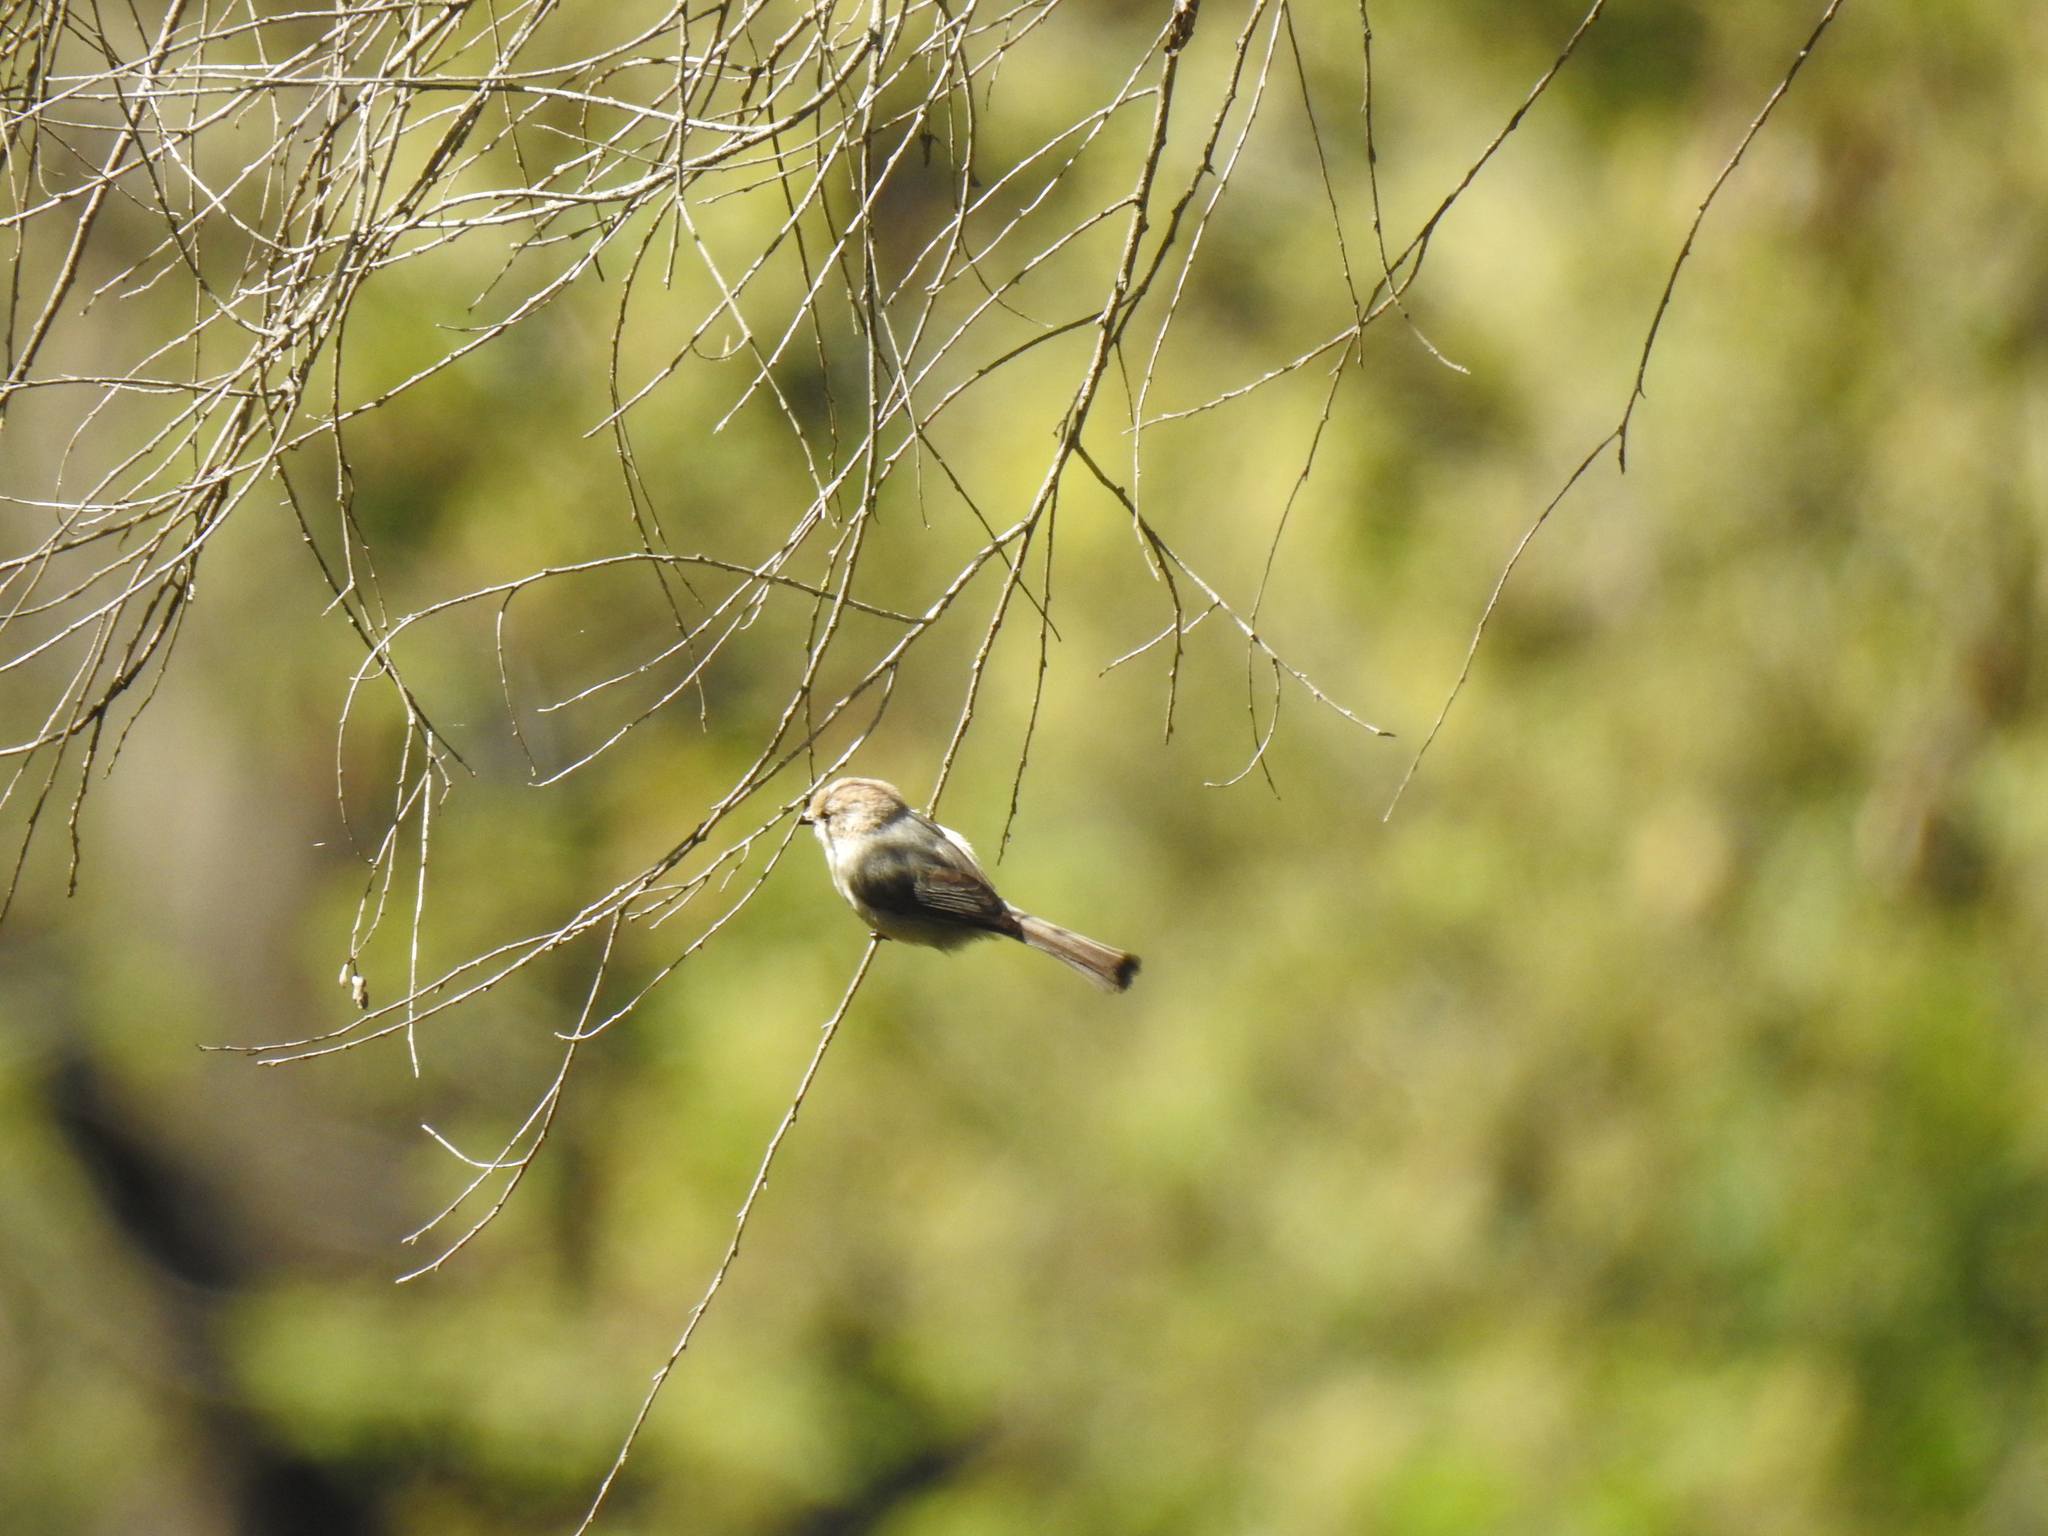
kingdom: Animalia
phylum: Chordata
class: Aves
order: Passeriformes
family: Aegithalidae
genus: Psaltriparus
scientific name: Psaltriparus minimus
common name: American bushtit
